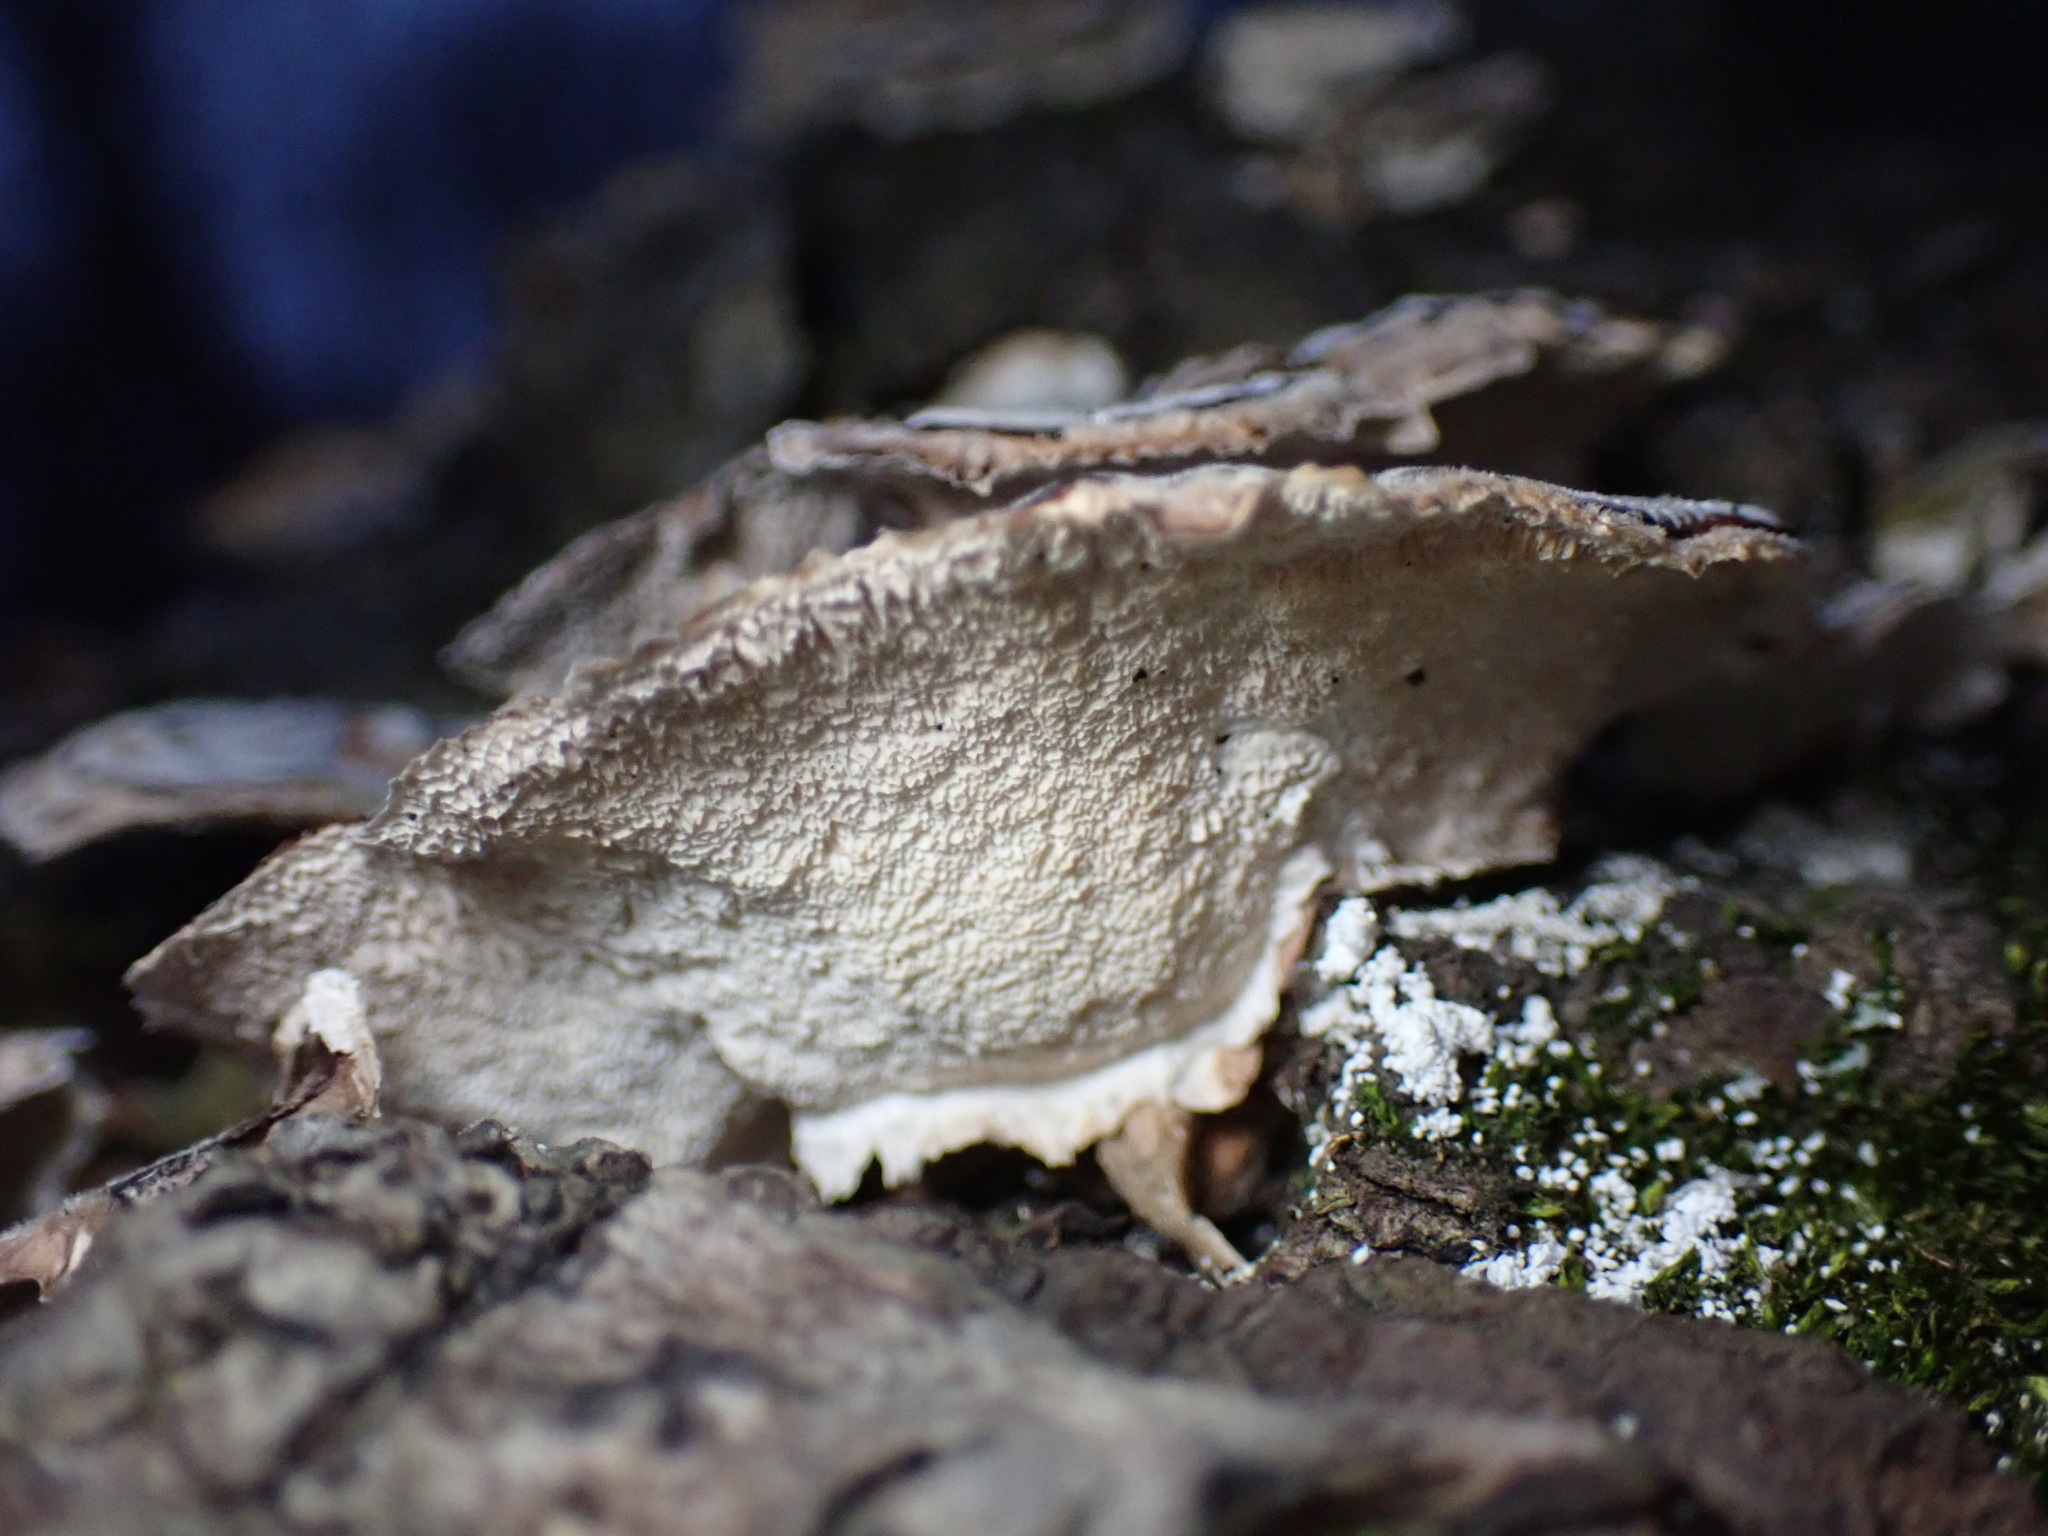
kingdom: Fungi
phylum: Basidiomycota
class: Agaricomycetes
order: Polyporales
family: Polyporaceae
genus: Trametes
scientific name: Trametes versicolor
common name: Turkeytail
